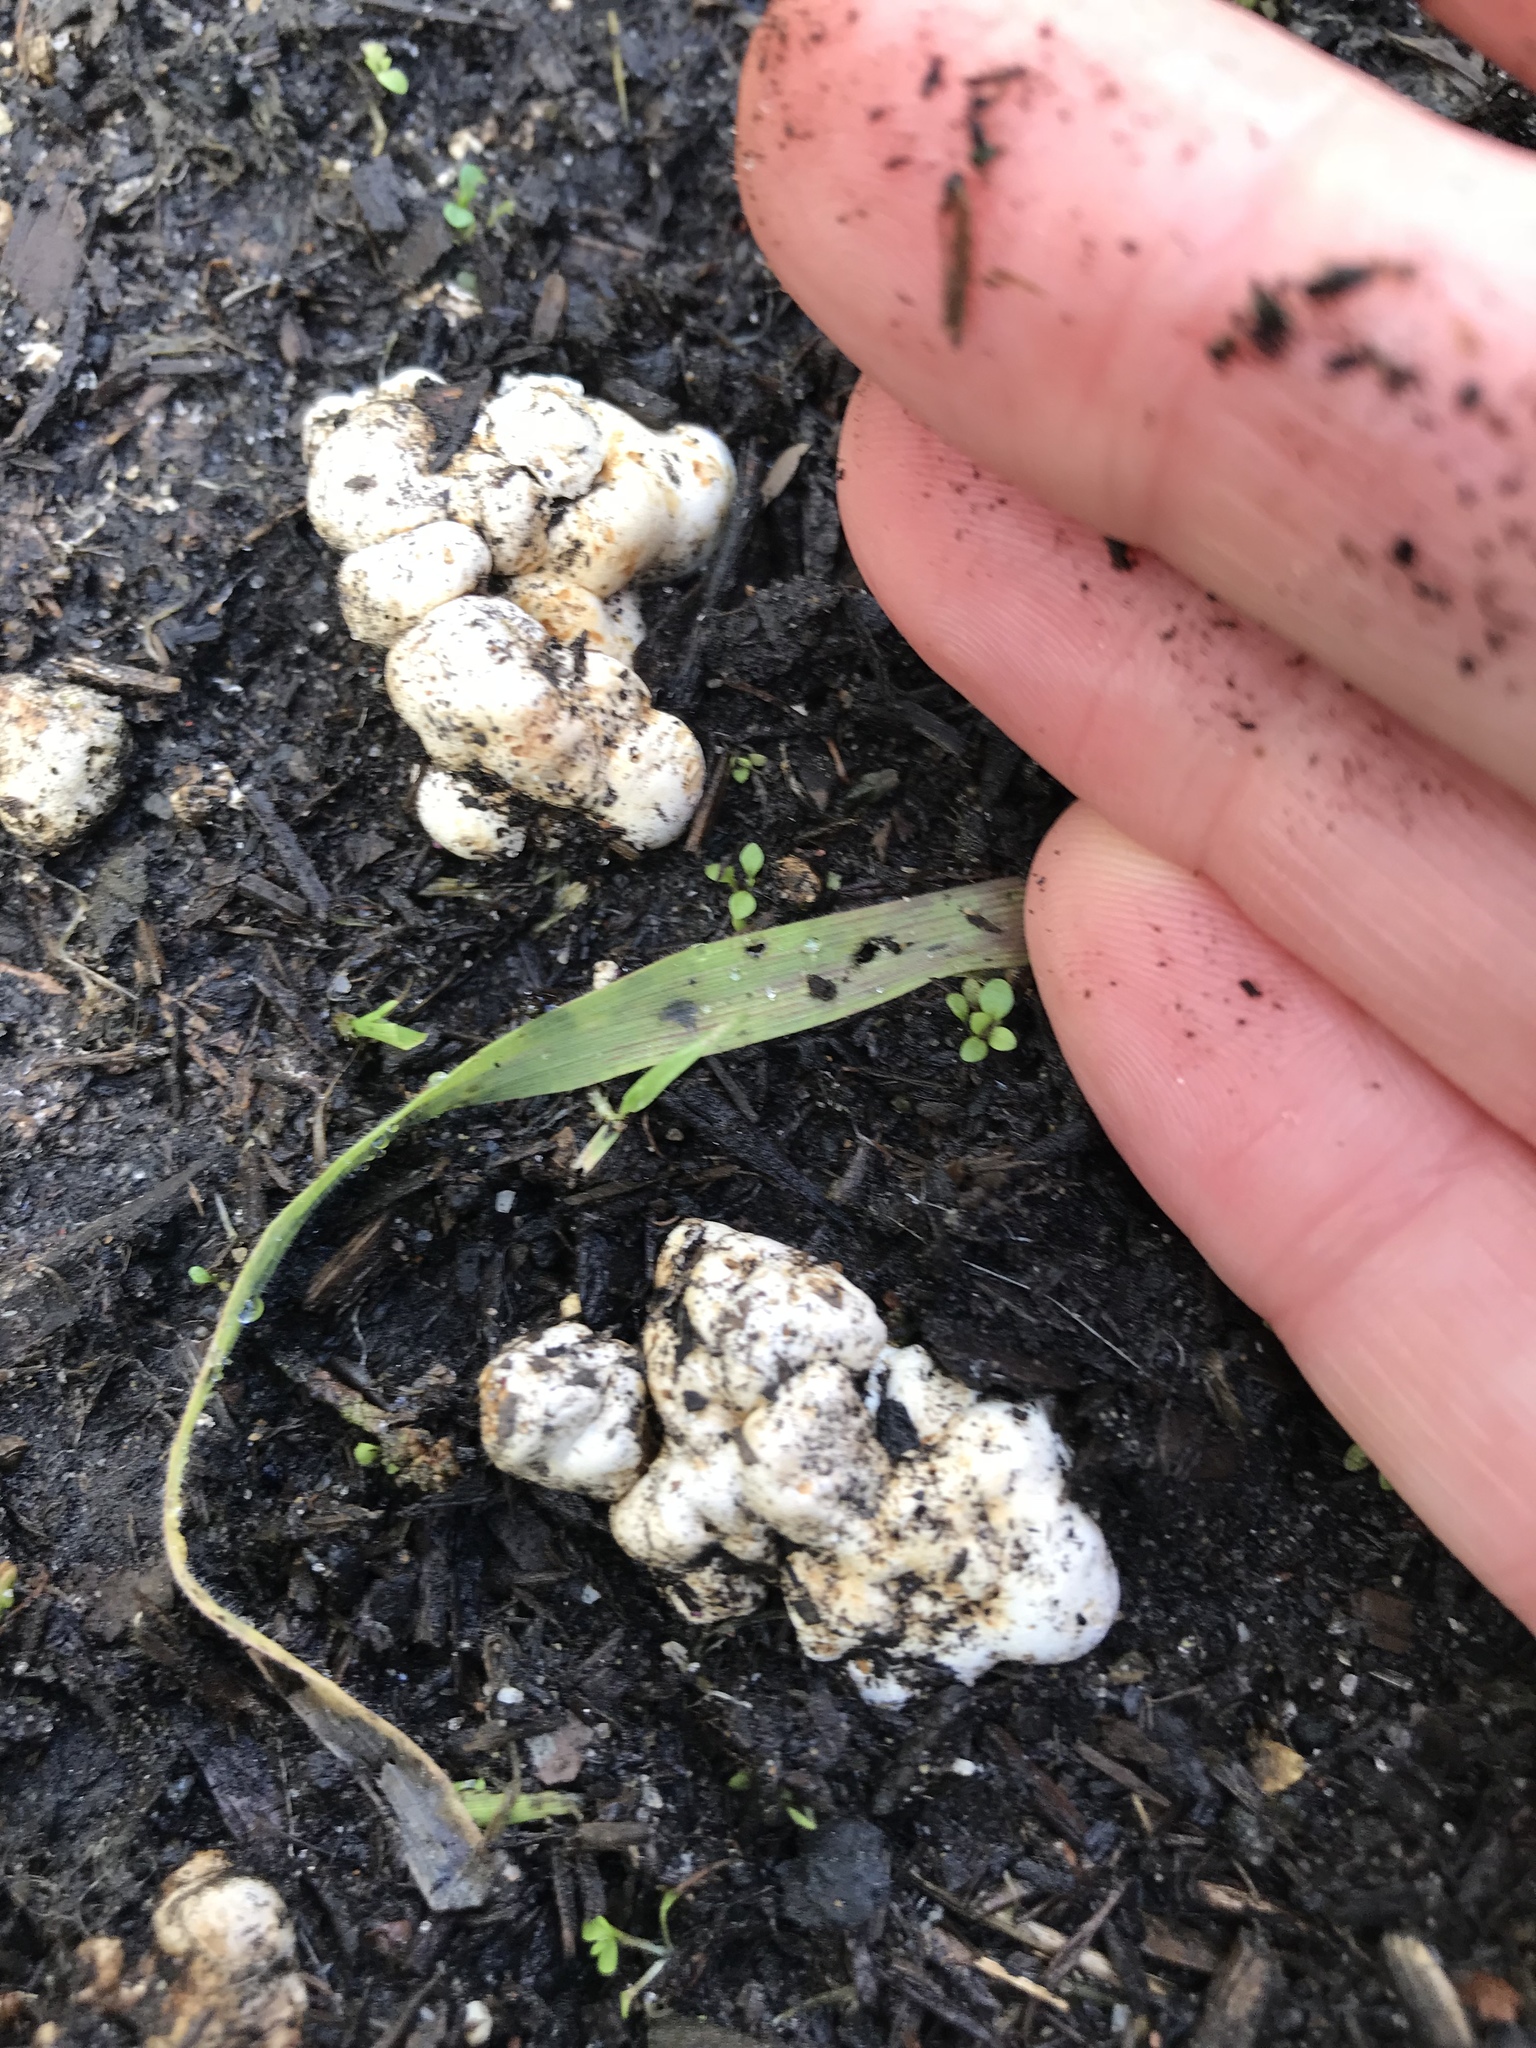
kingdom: Fungi
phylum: Basidiomycota
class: Agaricomycetes
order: Agaricales
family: Hymenogastraceae
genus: Psilocybe
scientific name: Psilocybe tuberifera
